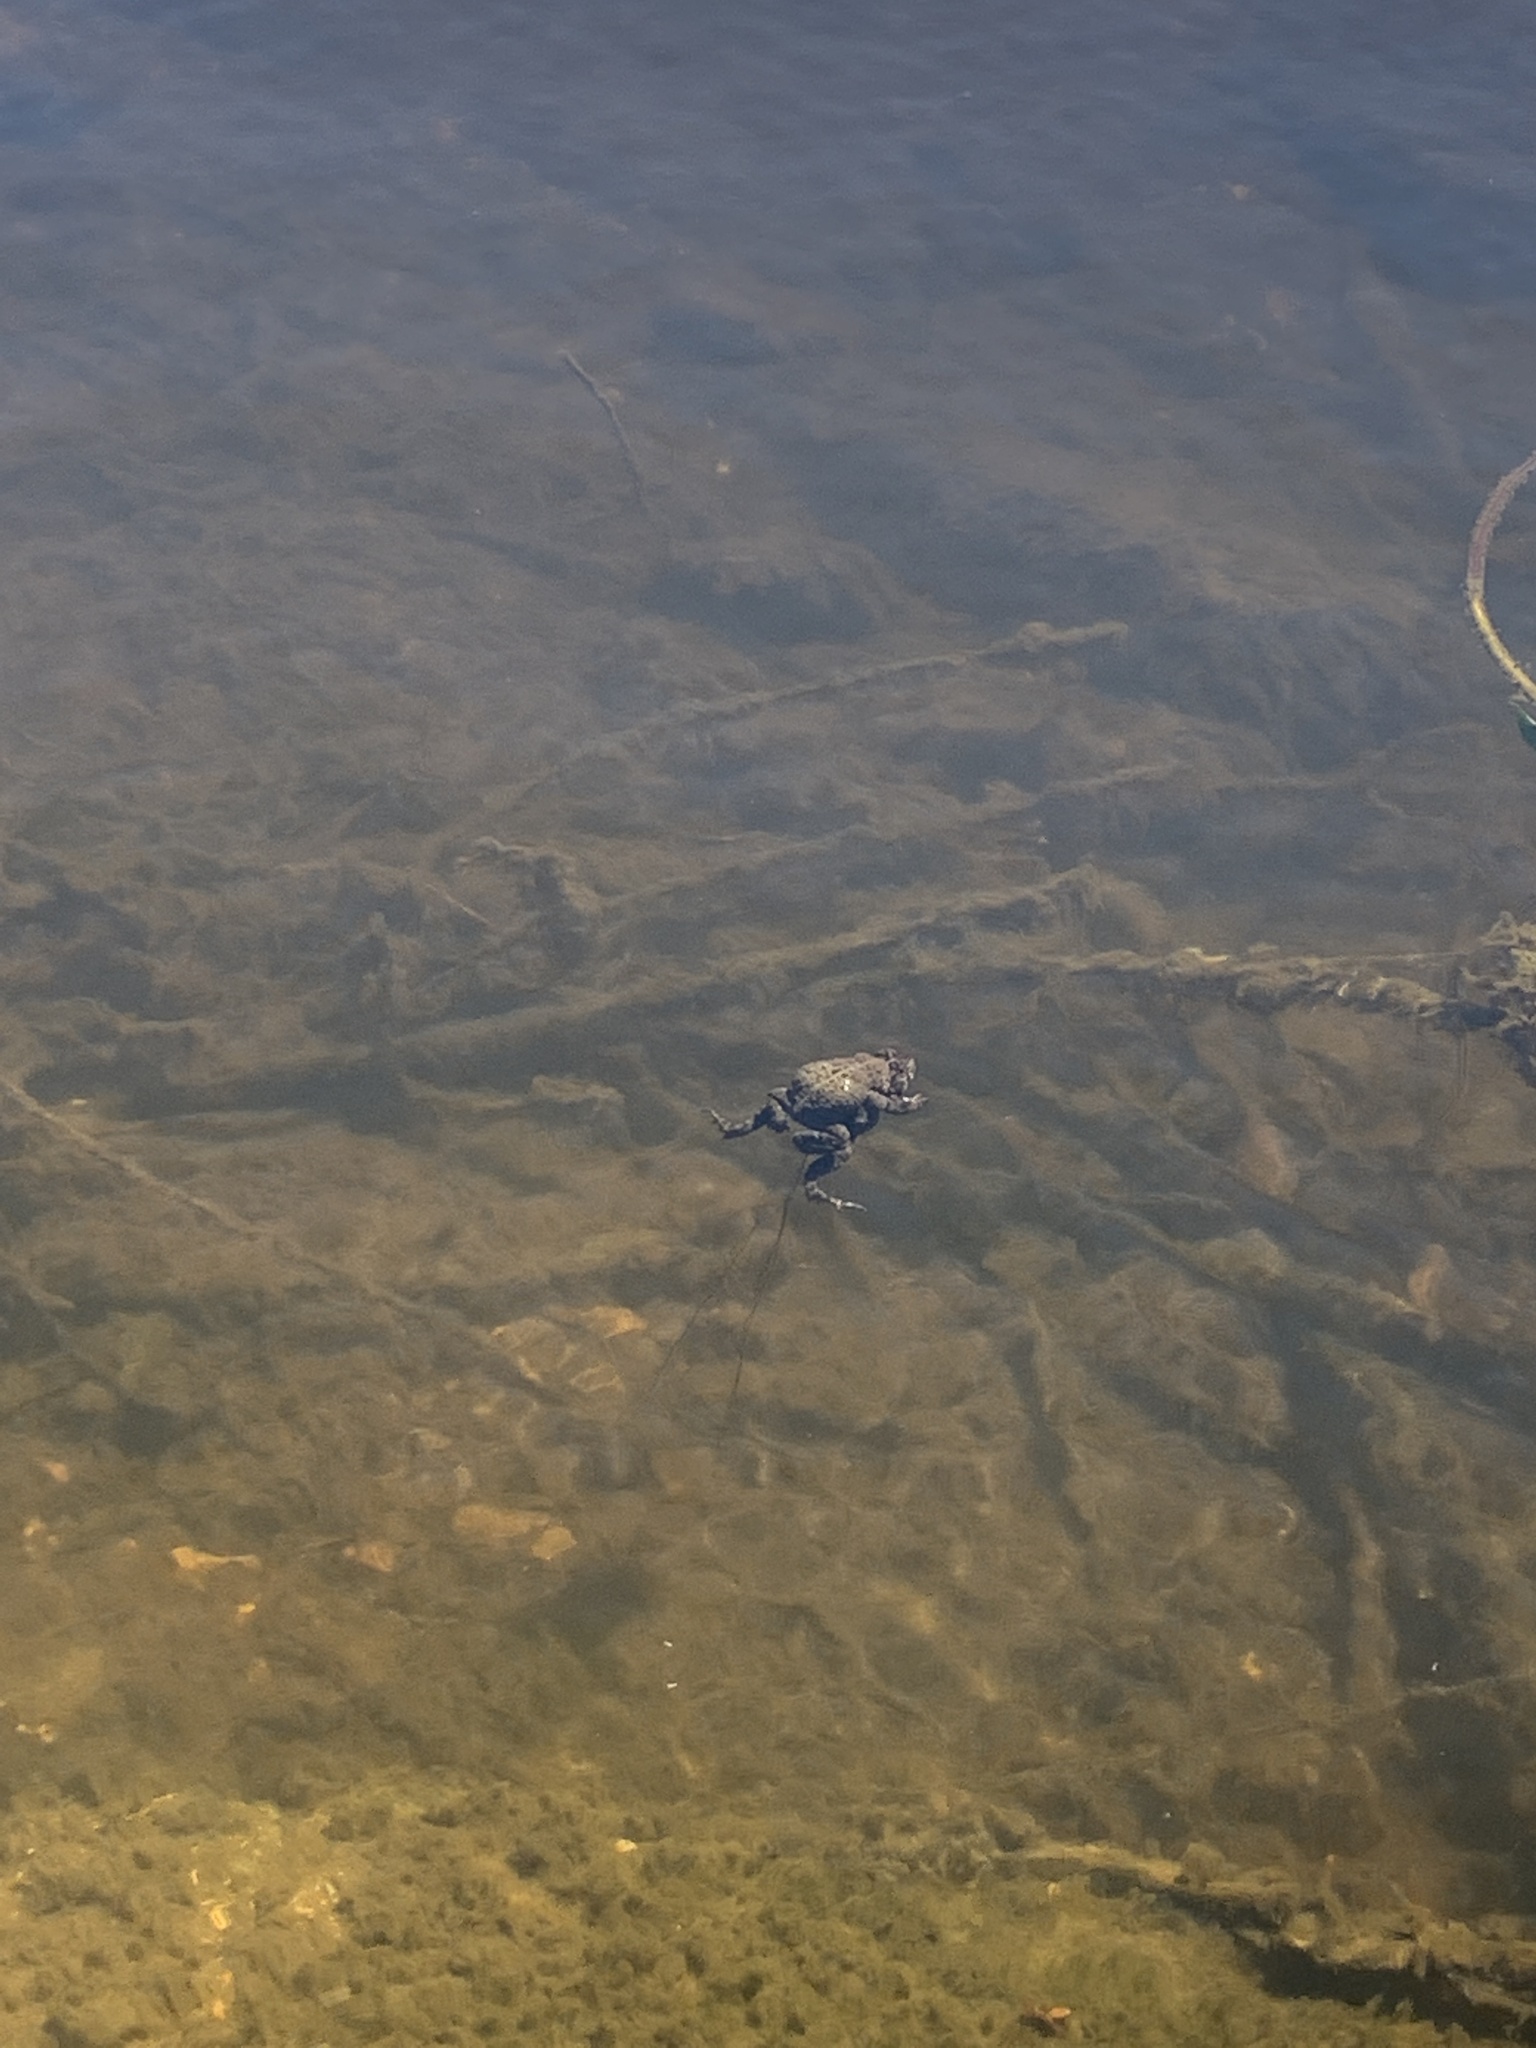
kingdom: Animalia
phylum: Chordata
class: Amphibia
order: Anura
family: Bufonidae
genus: Anaxyrus
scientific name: Anaxyrus americanus
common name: American toad
